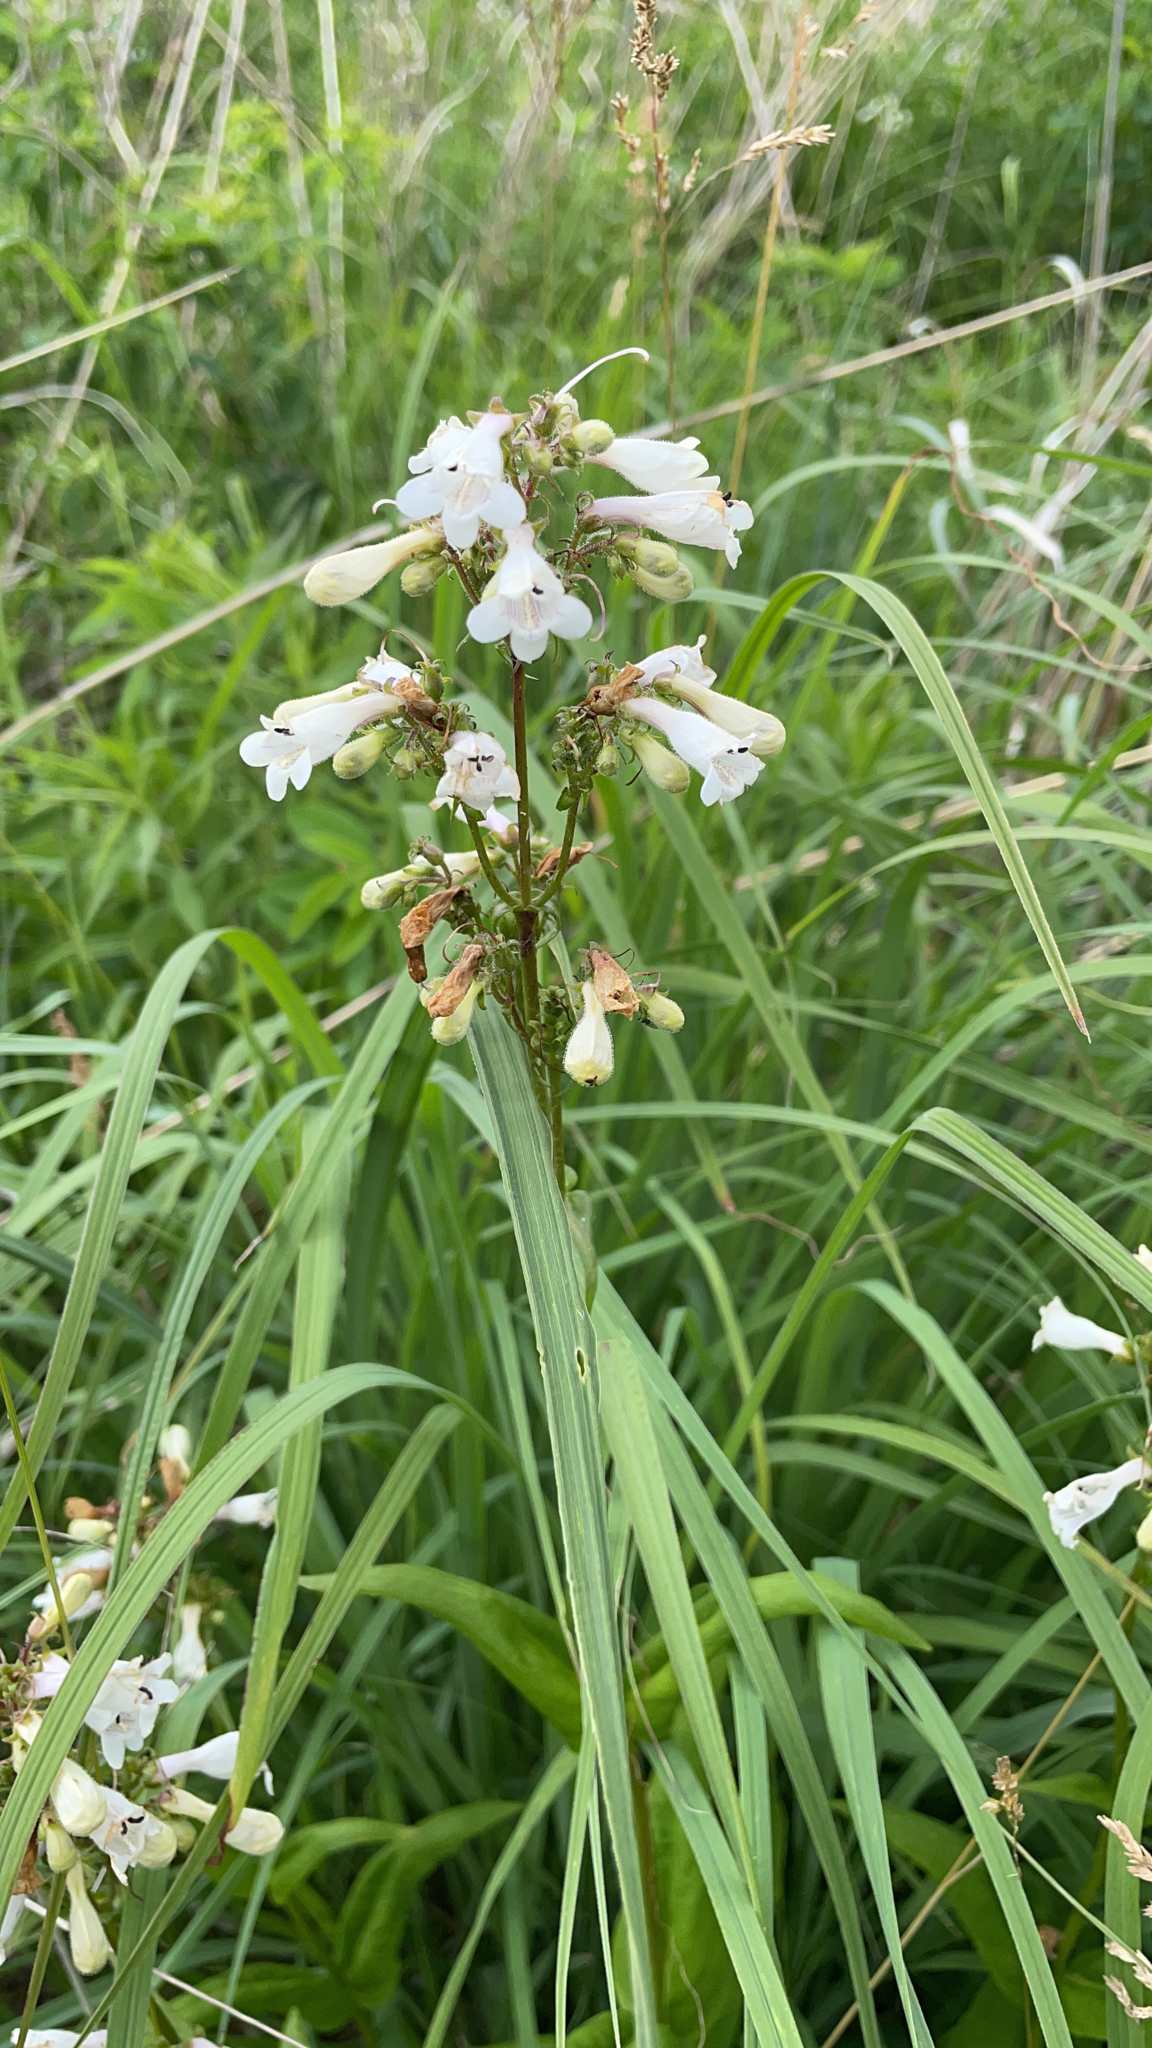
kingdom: Plantae
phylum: Tracheophyta
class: Magnoliopsida
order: Lamiales
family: Plantaginaceae
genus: Penstemon
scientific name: Penstemon digitalis
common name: Foxglove beardtongue
